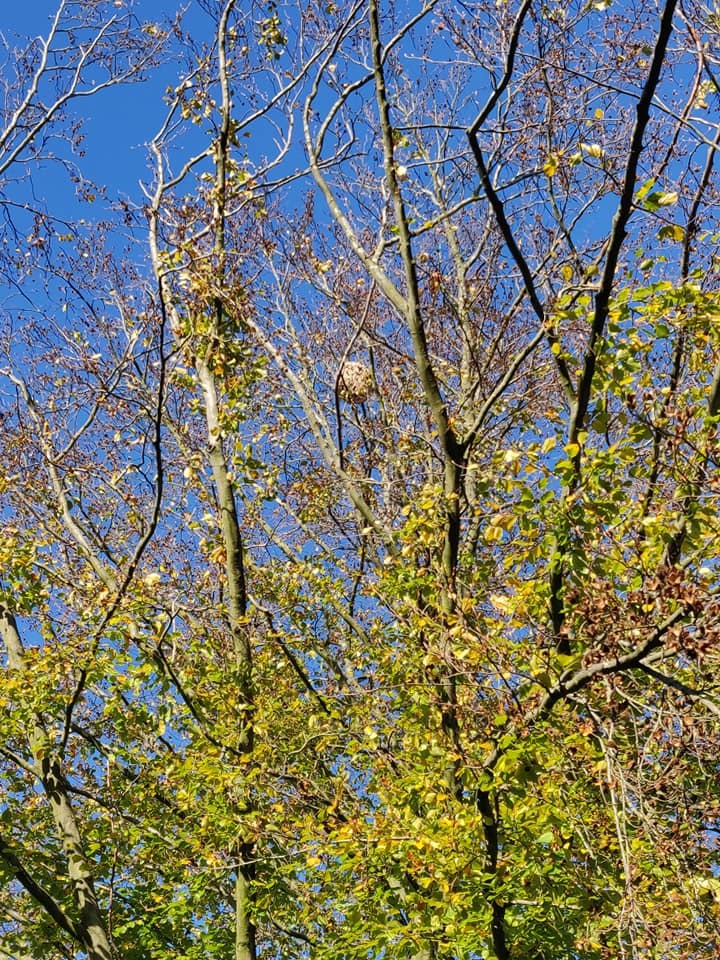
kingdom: Animalia
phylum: Arthropoda
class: Insecta
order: Hymenoptera
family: Vespidae
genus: Vespa
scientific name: Vespa velutina
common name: Asian hornet
